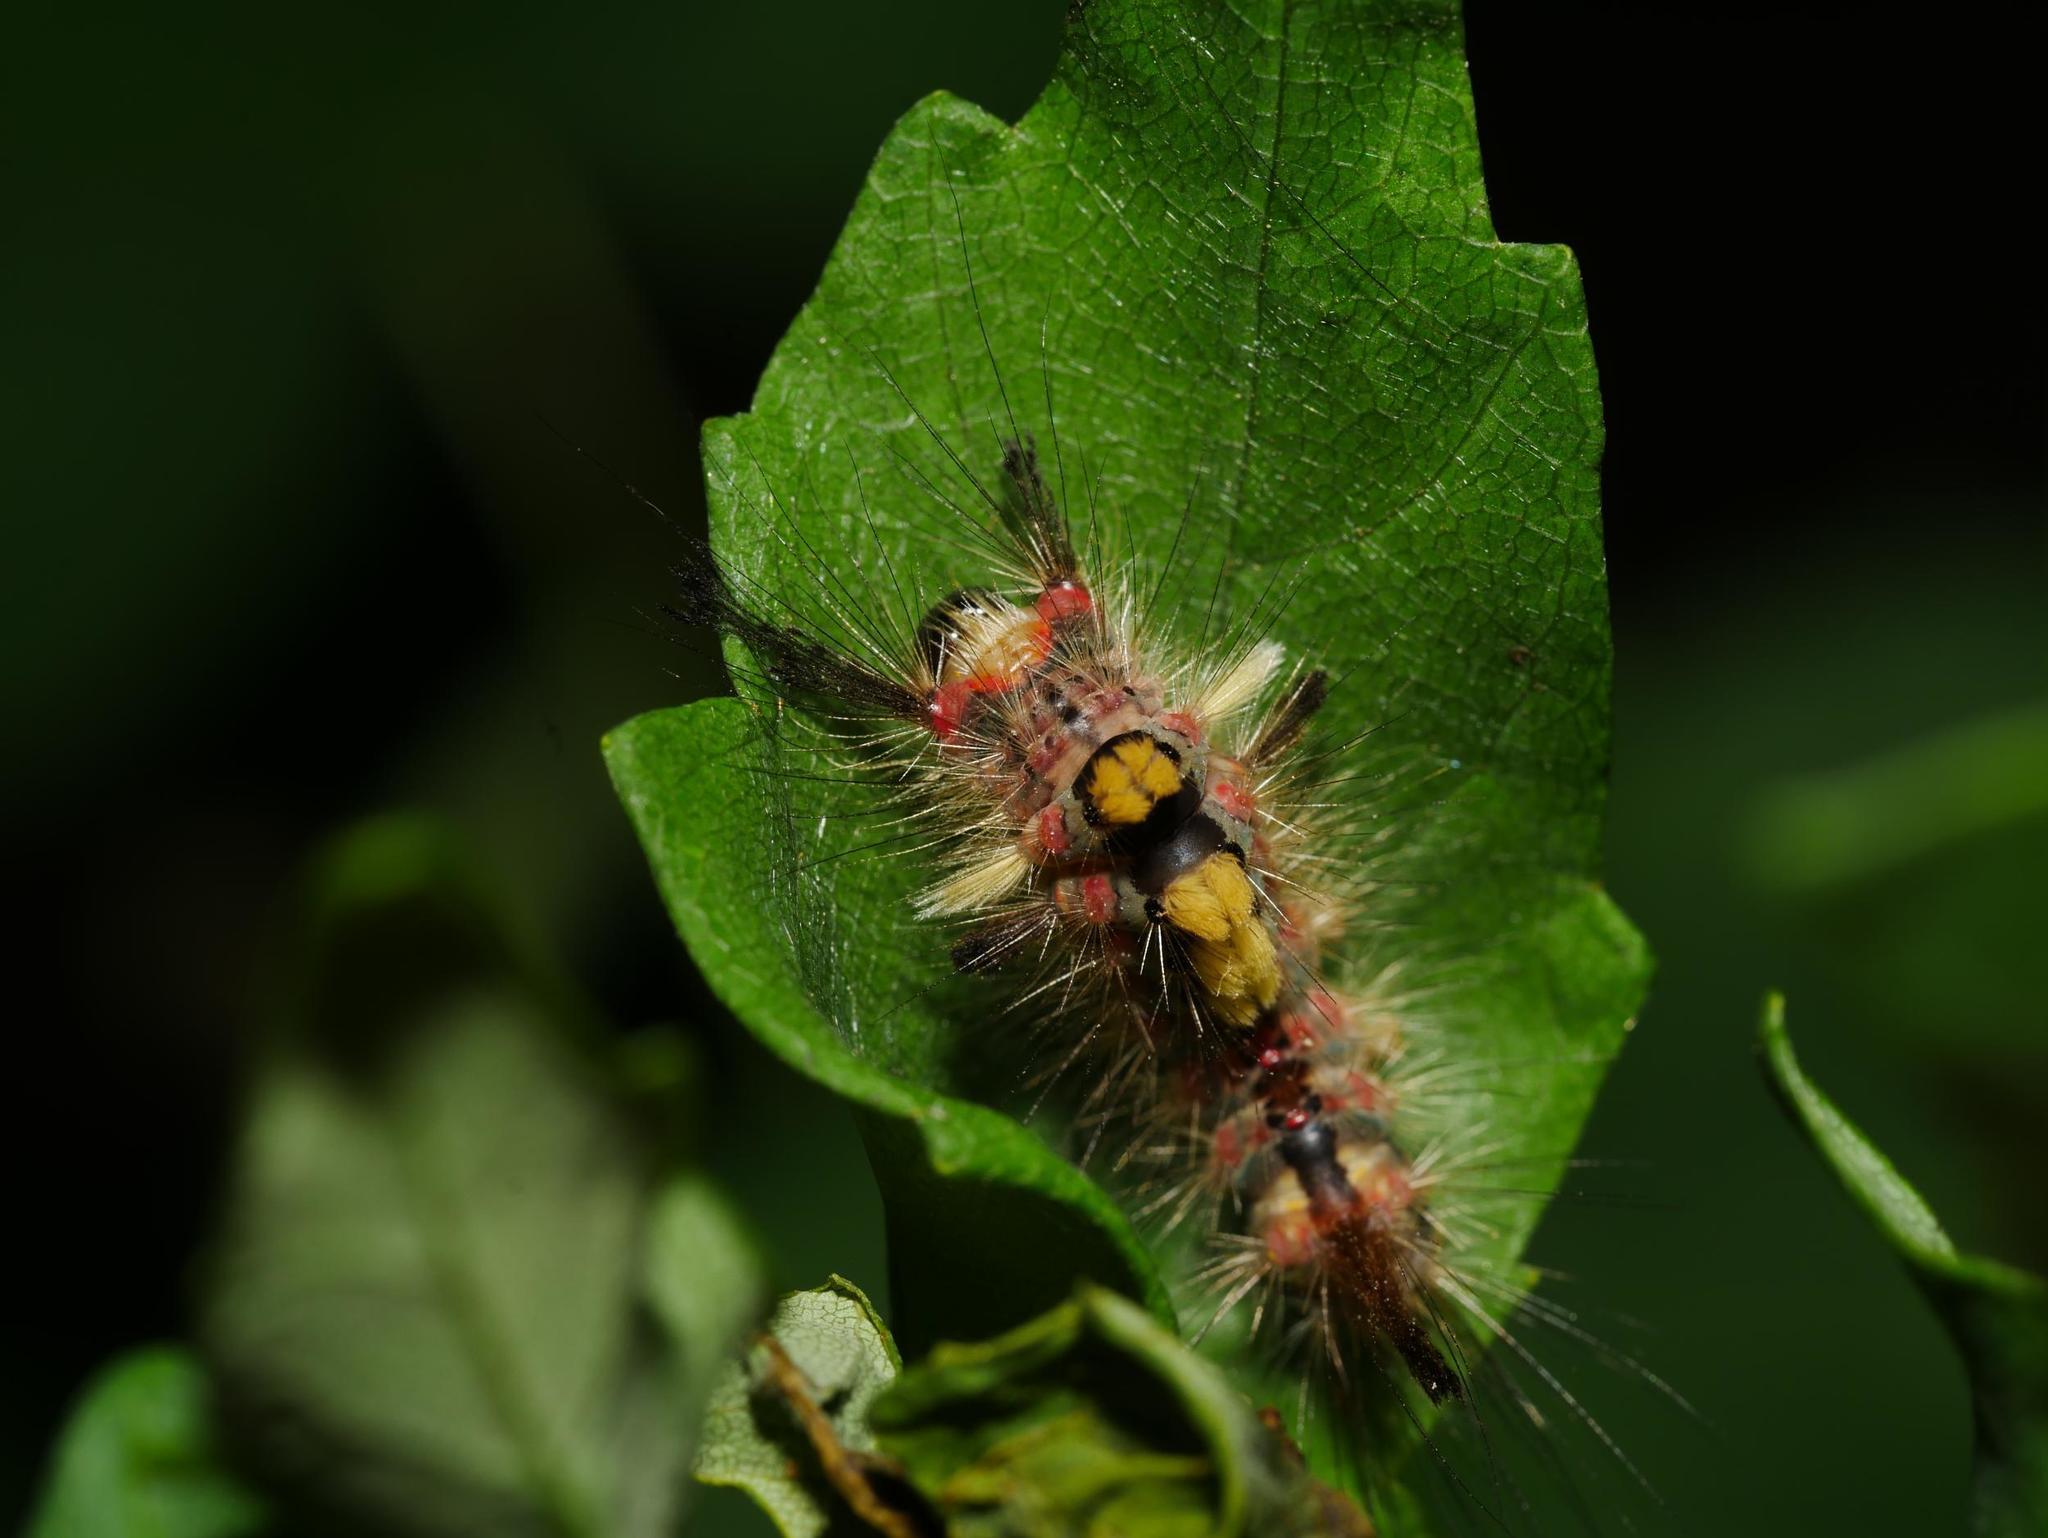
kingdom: Animalia
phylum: Arthropoda
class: Insecta
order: Lepidoptera
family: Erebidae
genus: Orgyia
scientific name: Orgyia antiqua
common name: Vapourer
